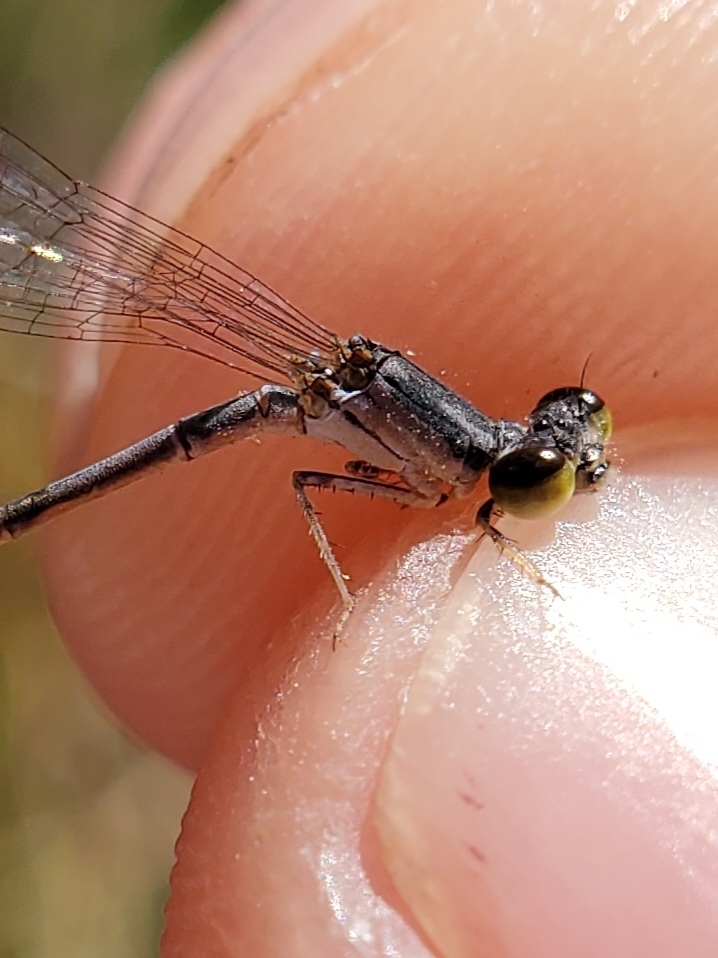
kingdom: Animalia
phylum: Arthropoda
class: Insecta
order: Odonata
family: Coenagrionidae
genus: Ischnura
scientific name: Ischnura posita
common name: Fragile forktail
